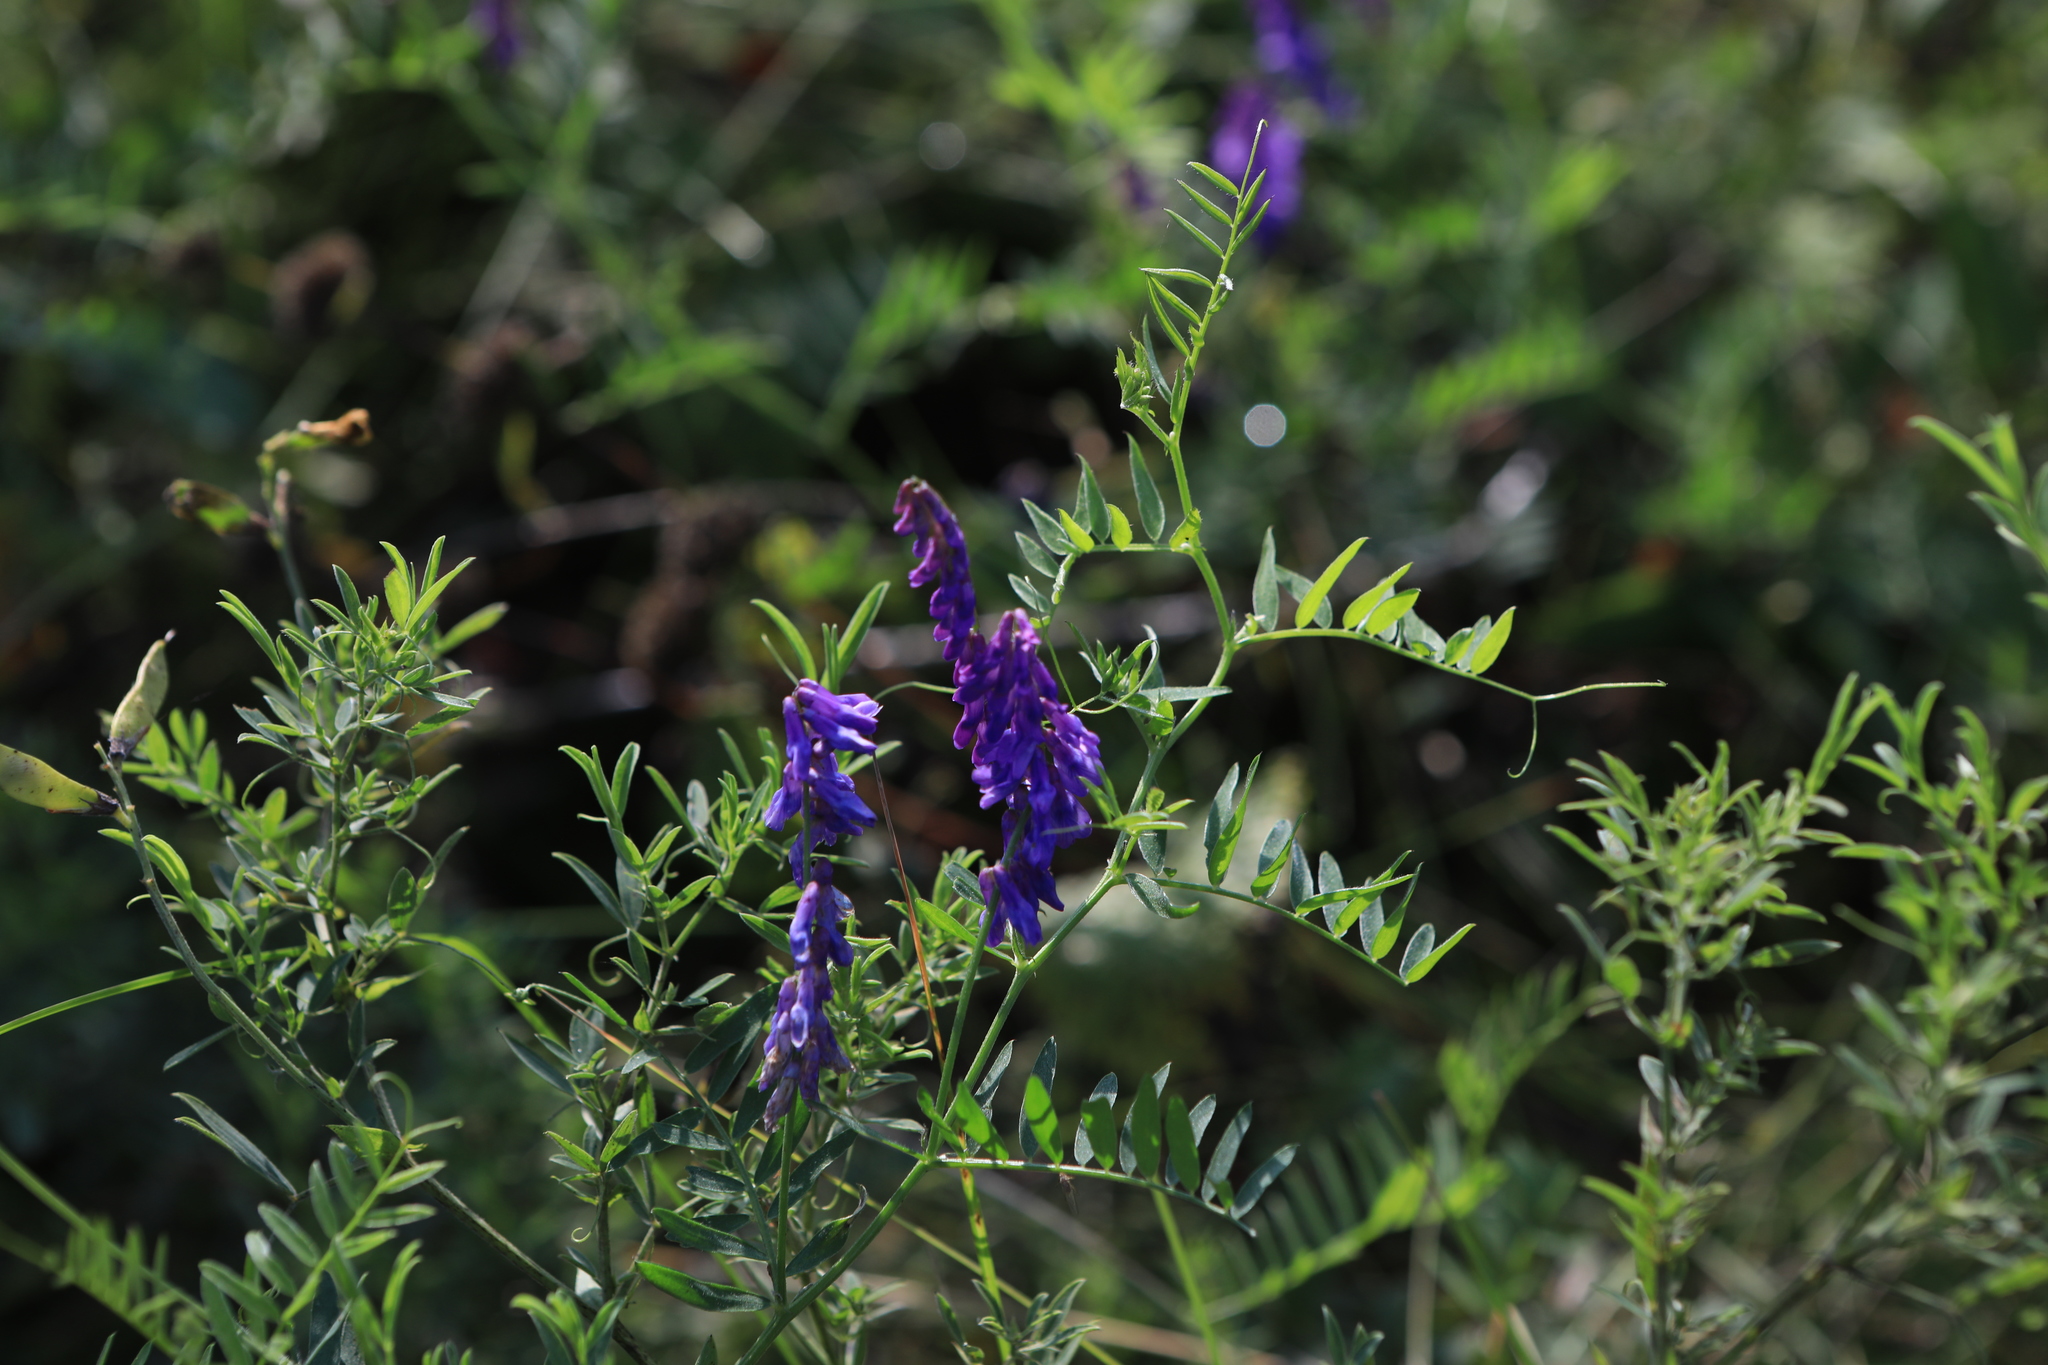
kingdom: Plantae
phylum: Tracheophyta
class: Magnoliopsida
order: Fabales
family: Fabaceae
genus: Vicia
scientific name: Vicia cracca
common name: Bird vetch
